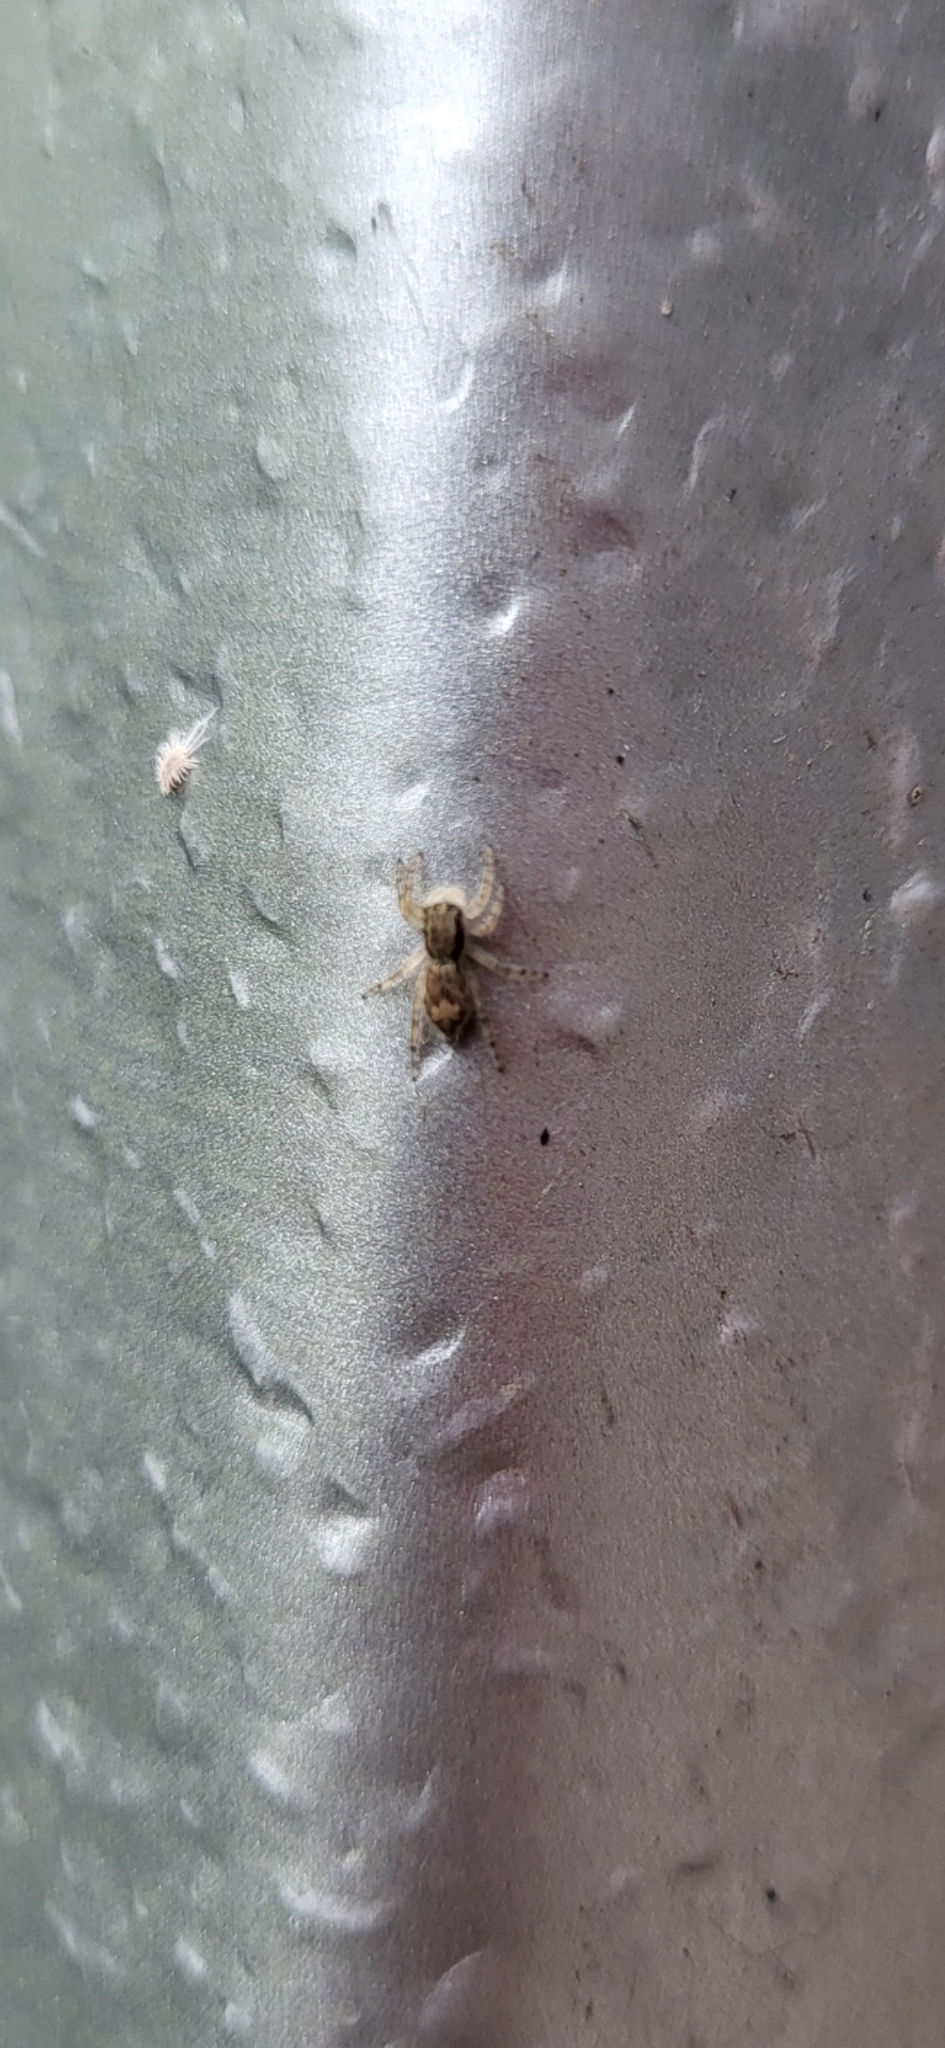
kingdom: Animalia
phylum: Arthropoda
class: Arachnida
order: Araneae
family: Salticidae
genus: Menemerus
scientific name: Menemerus bivittatus
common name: Gray wall jumper
